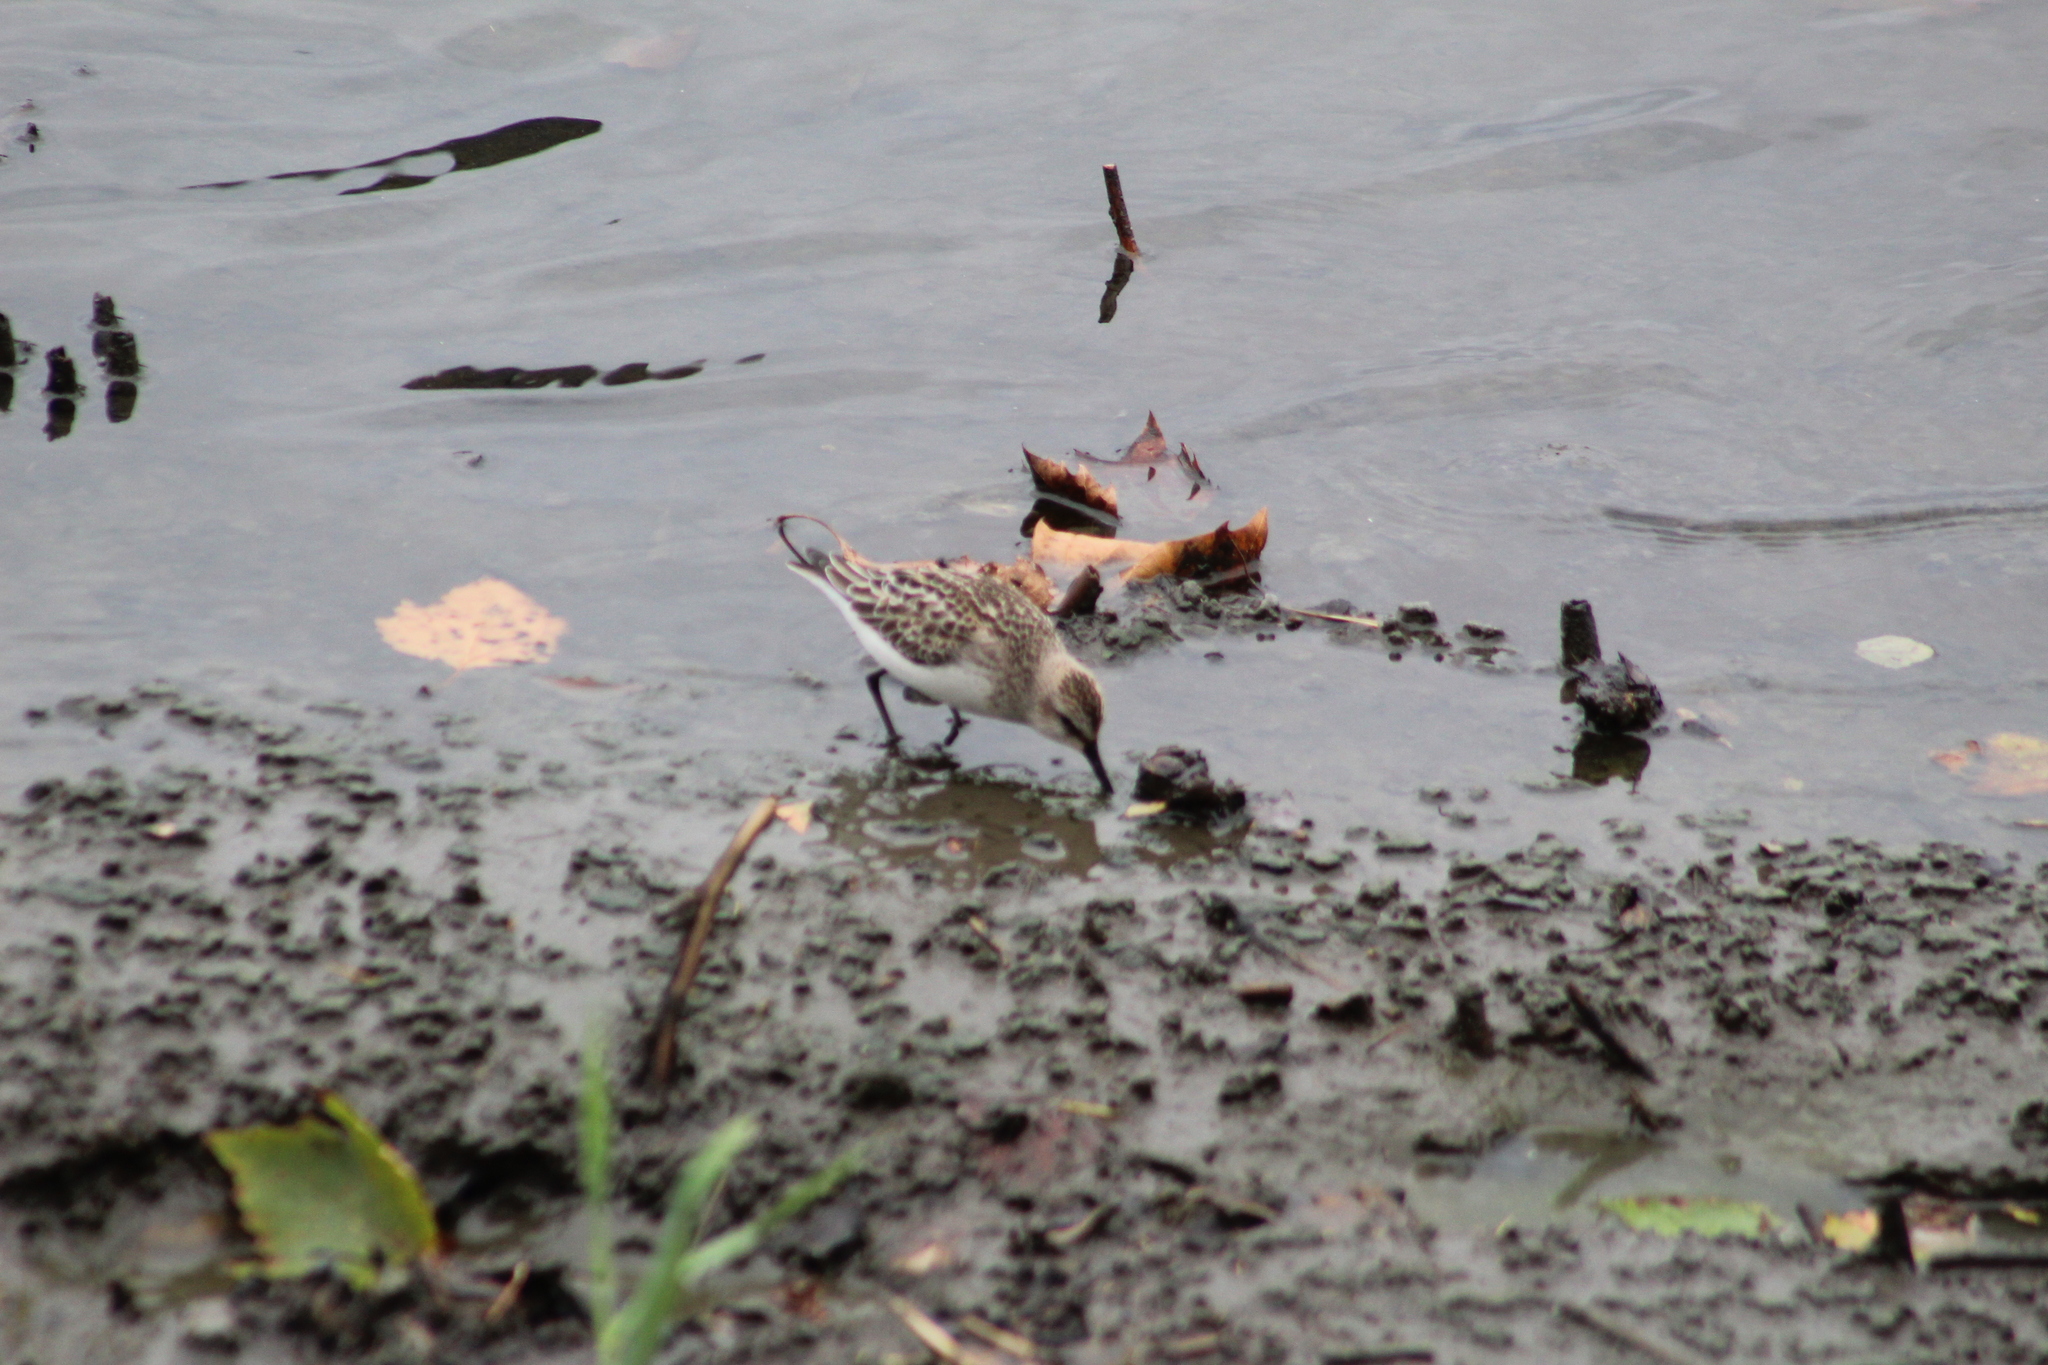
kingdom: Animalia
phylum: Chordata
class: Aves
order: Charadriiformes
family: Scolopacidae
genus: Calidris
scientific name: Calidris pusilla
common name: Semipalmated sandpiper
